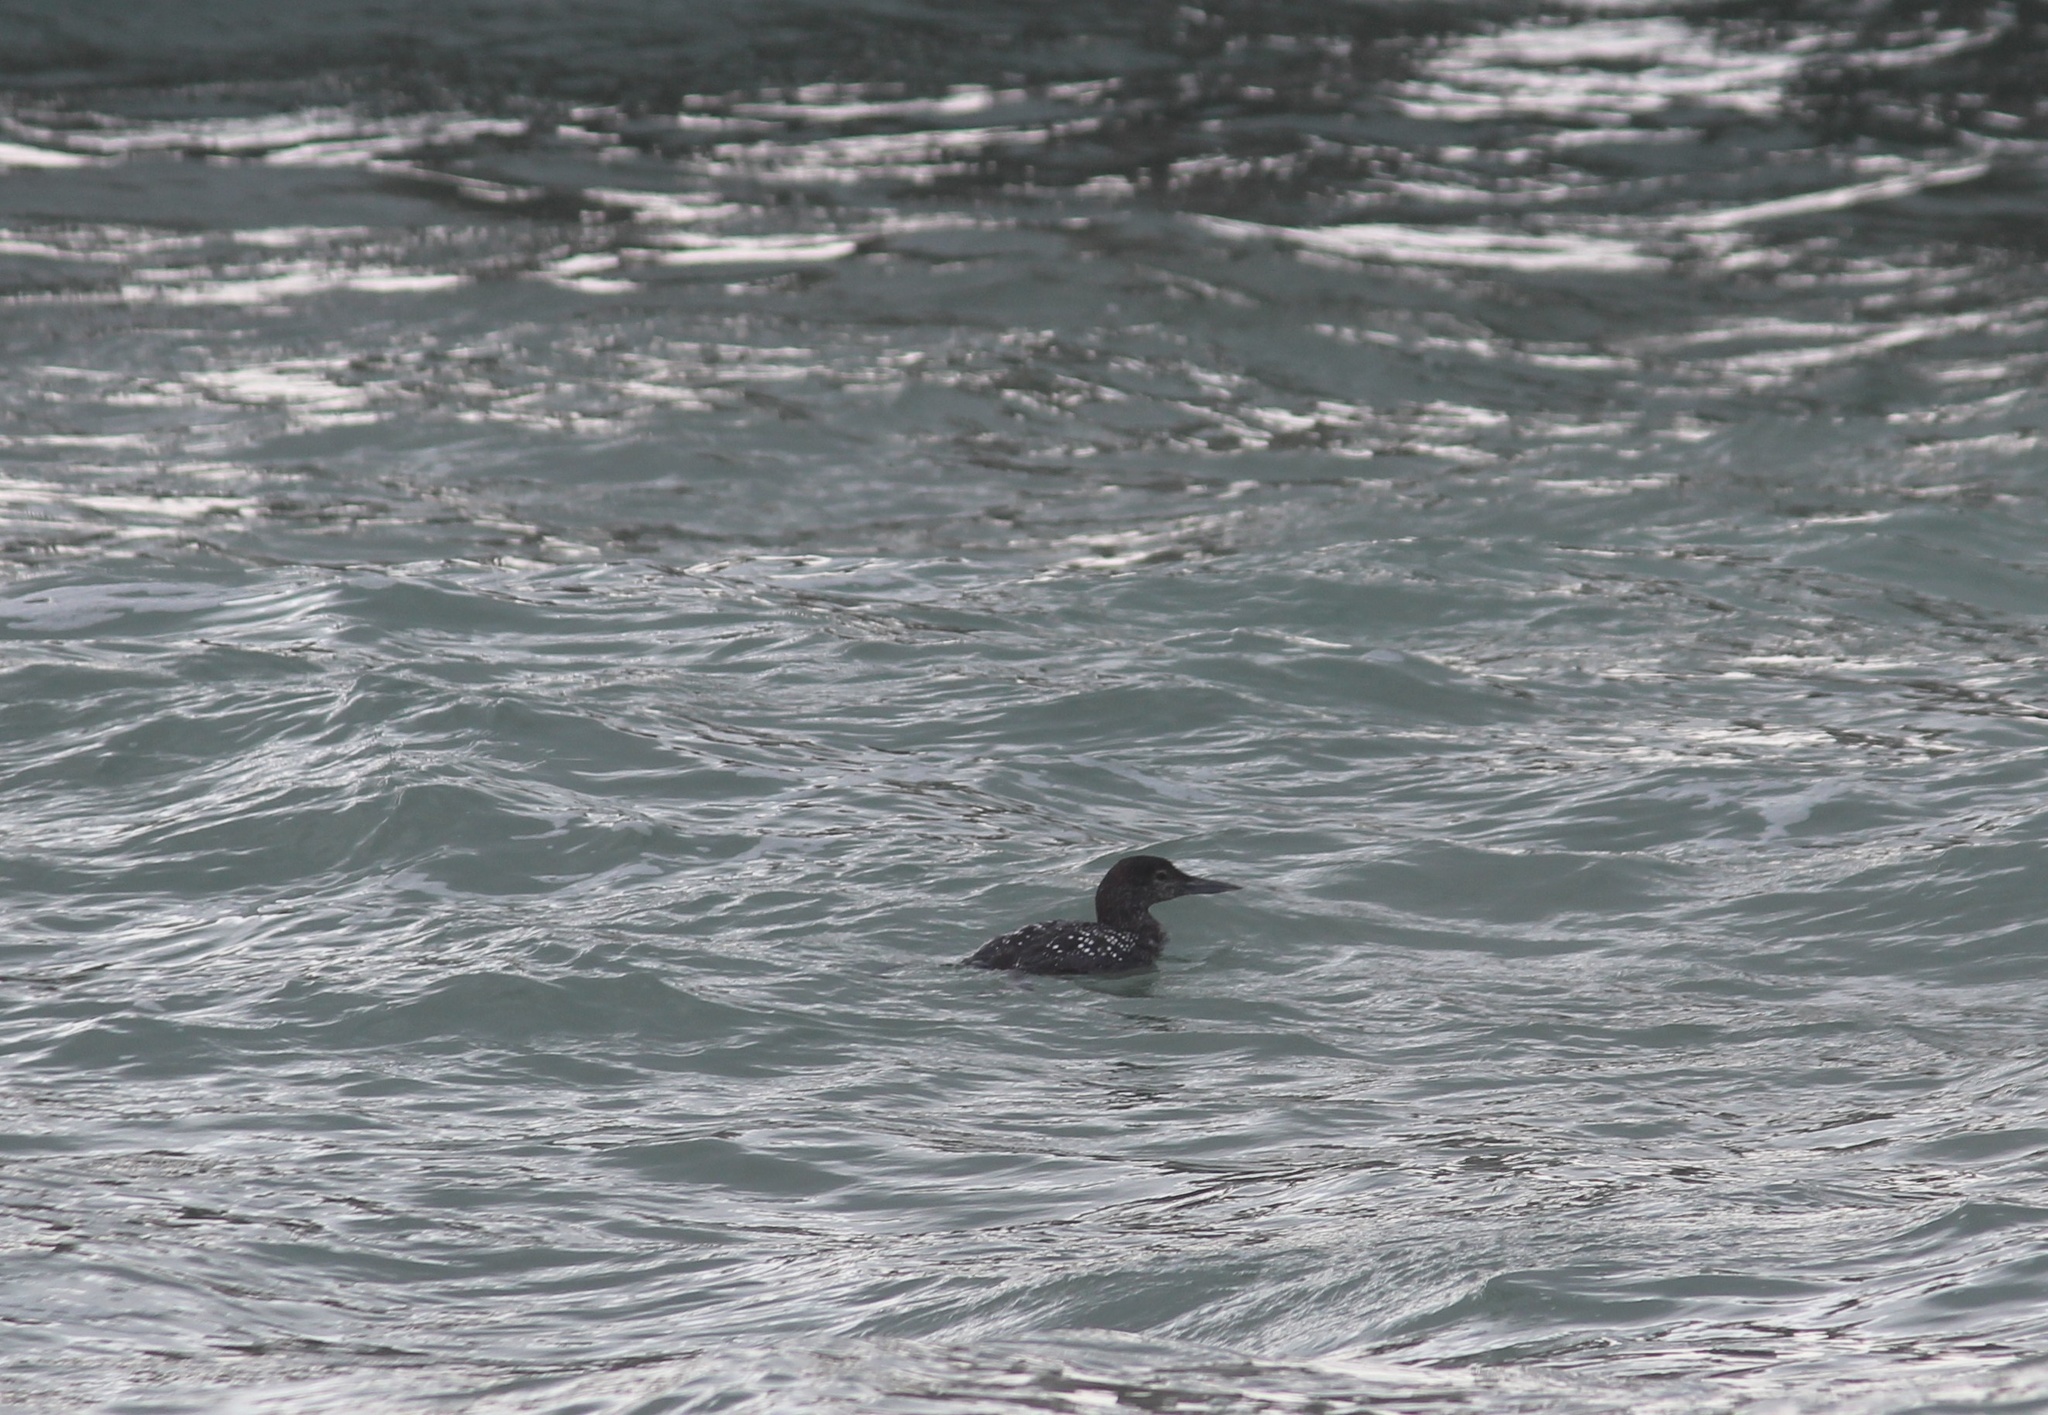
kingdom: Animalia
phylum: Chordata
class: Aves
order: Gaviiformes
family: Gaviidae
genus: Gavia
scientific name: Gavia immer
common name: Common loon
